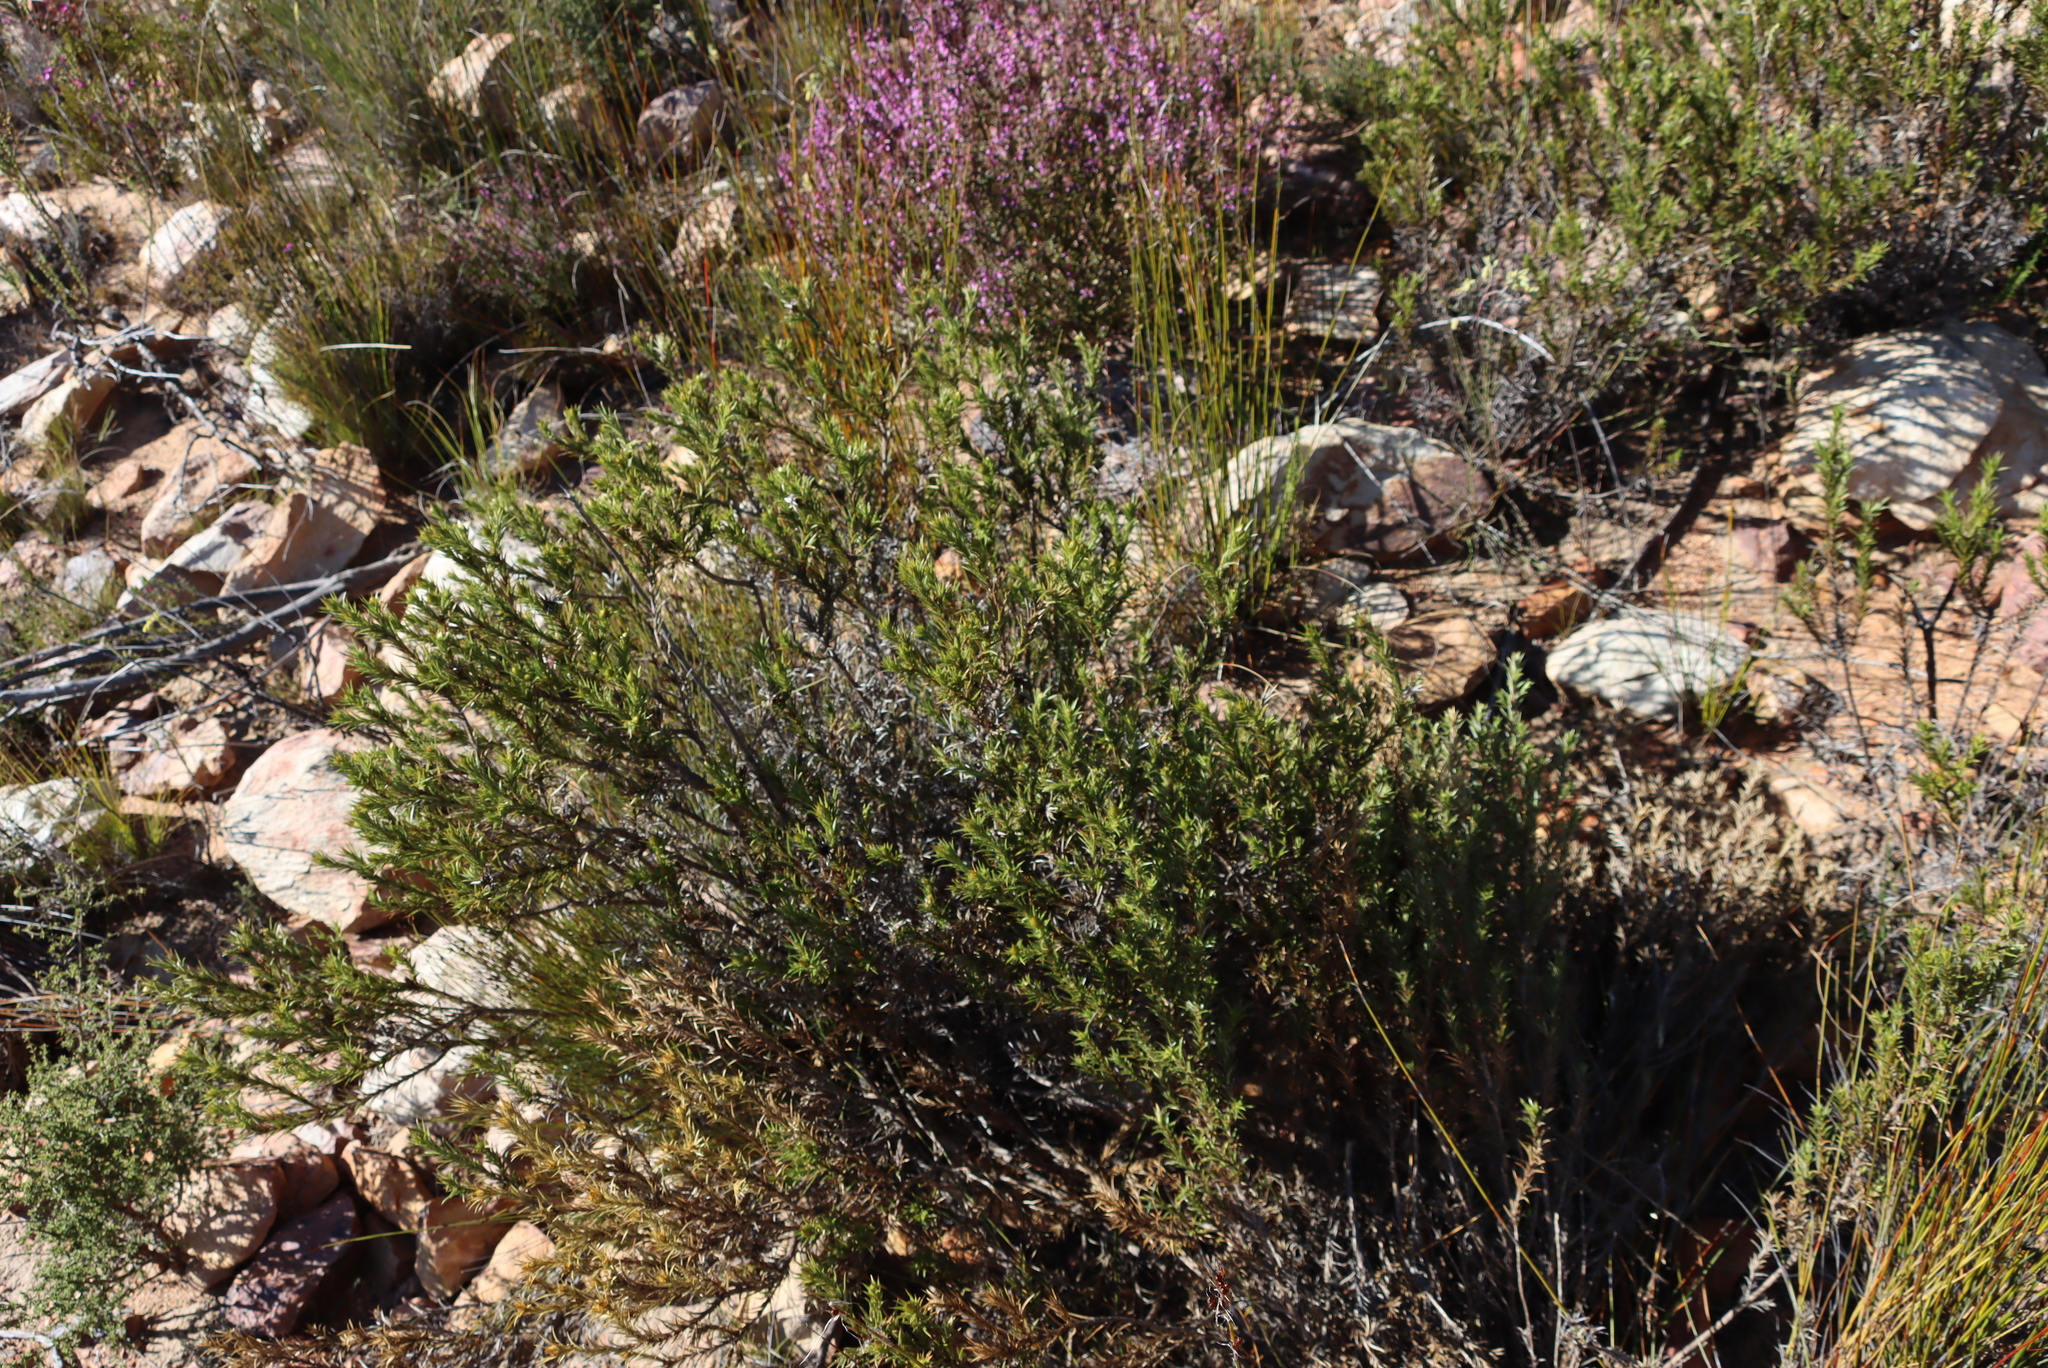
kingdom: Plantae
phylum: Tracheophyta
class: Magnoliopsida
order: Asterales
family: Asteraceae
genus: Oedera
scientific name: Oedera pungens
